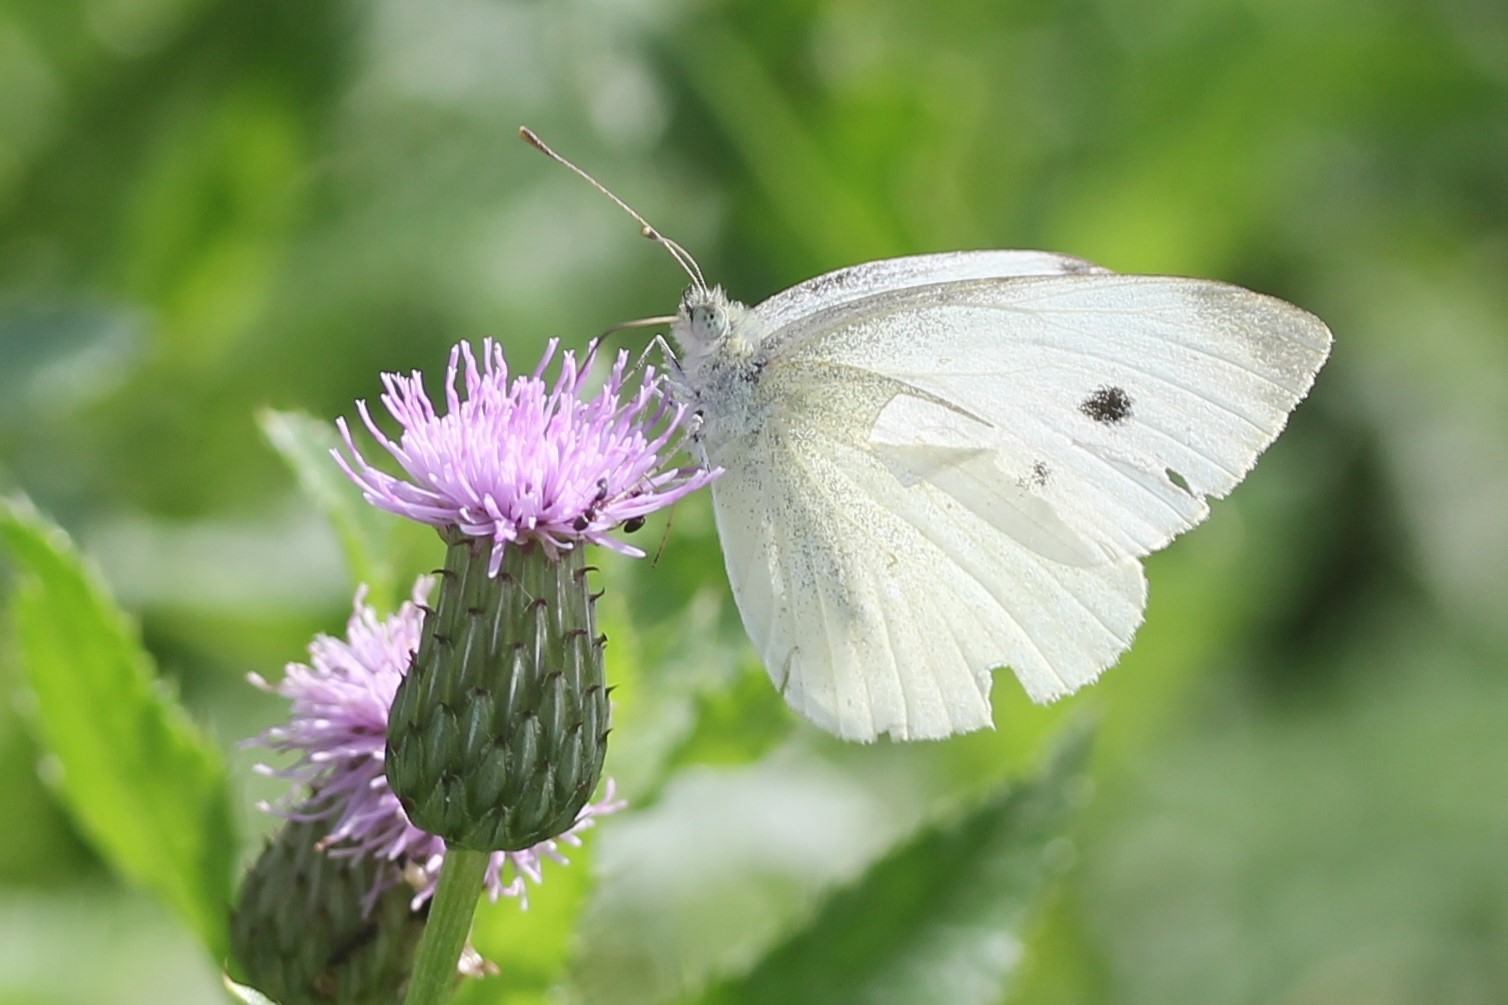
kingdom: Animalia
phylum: Arthropoda
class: Insecta
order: Lepidoptera
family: Pieridae
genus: Pieris
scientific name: Pieris rapae
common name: Small white
